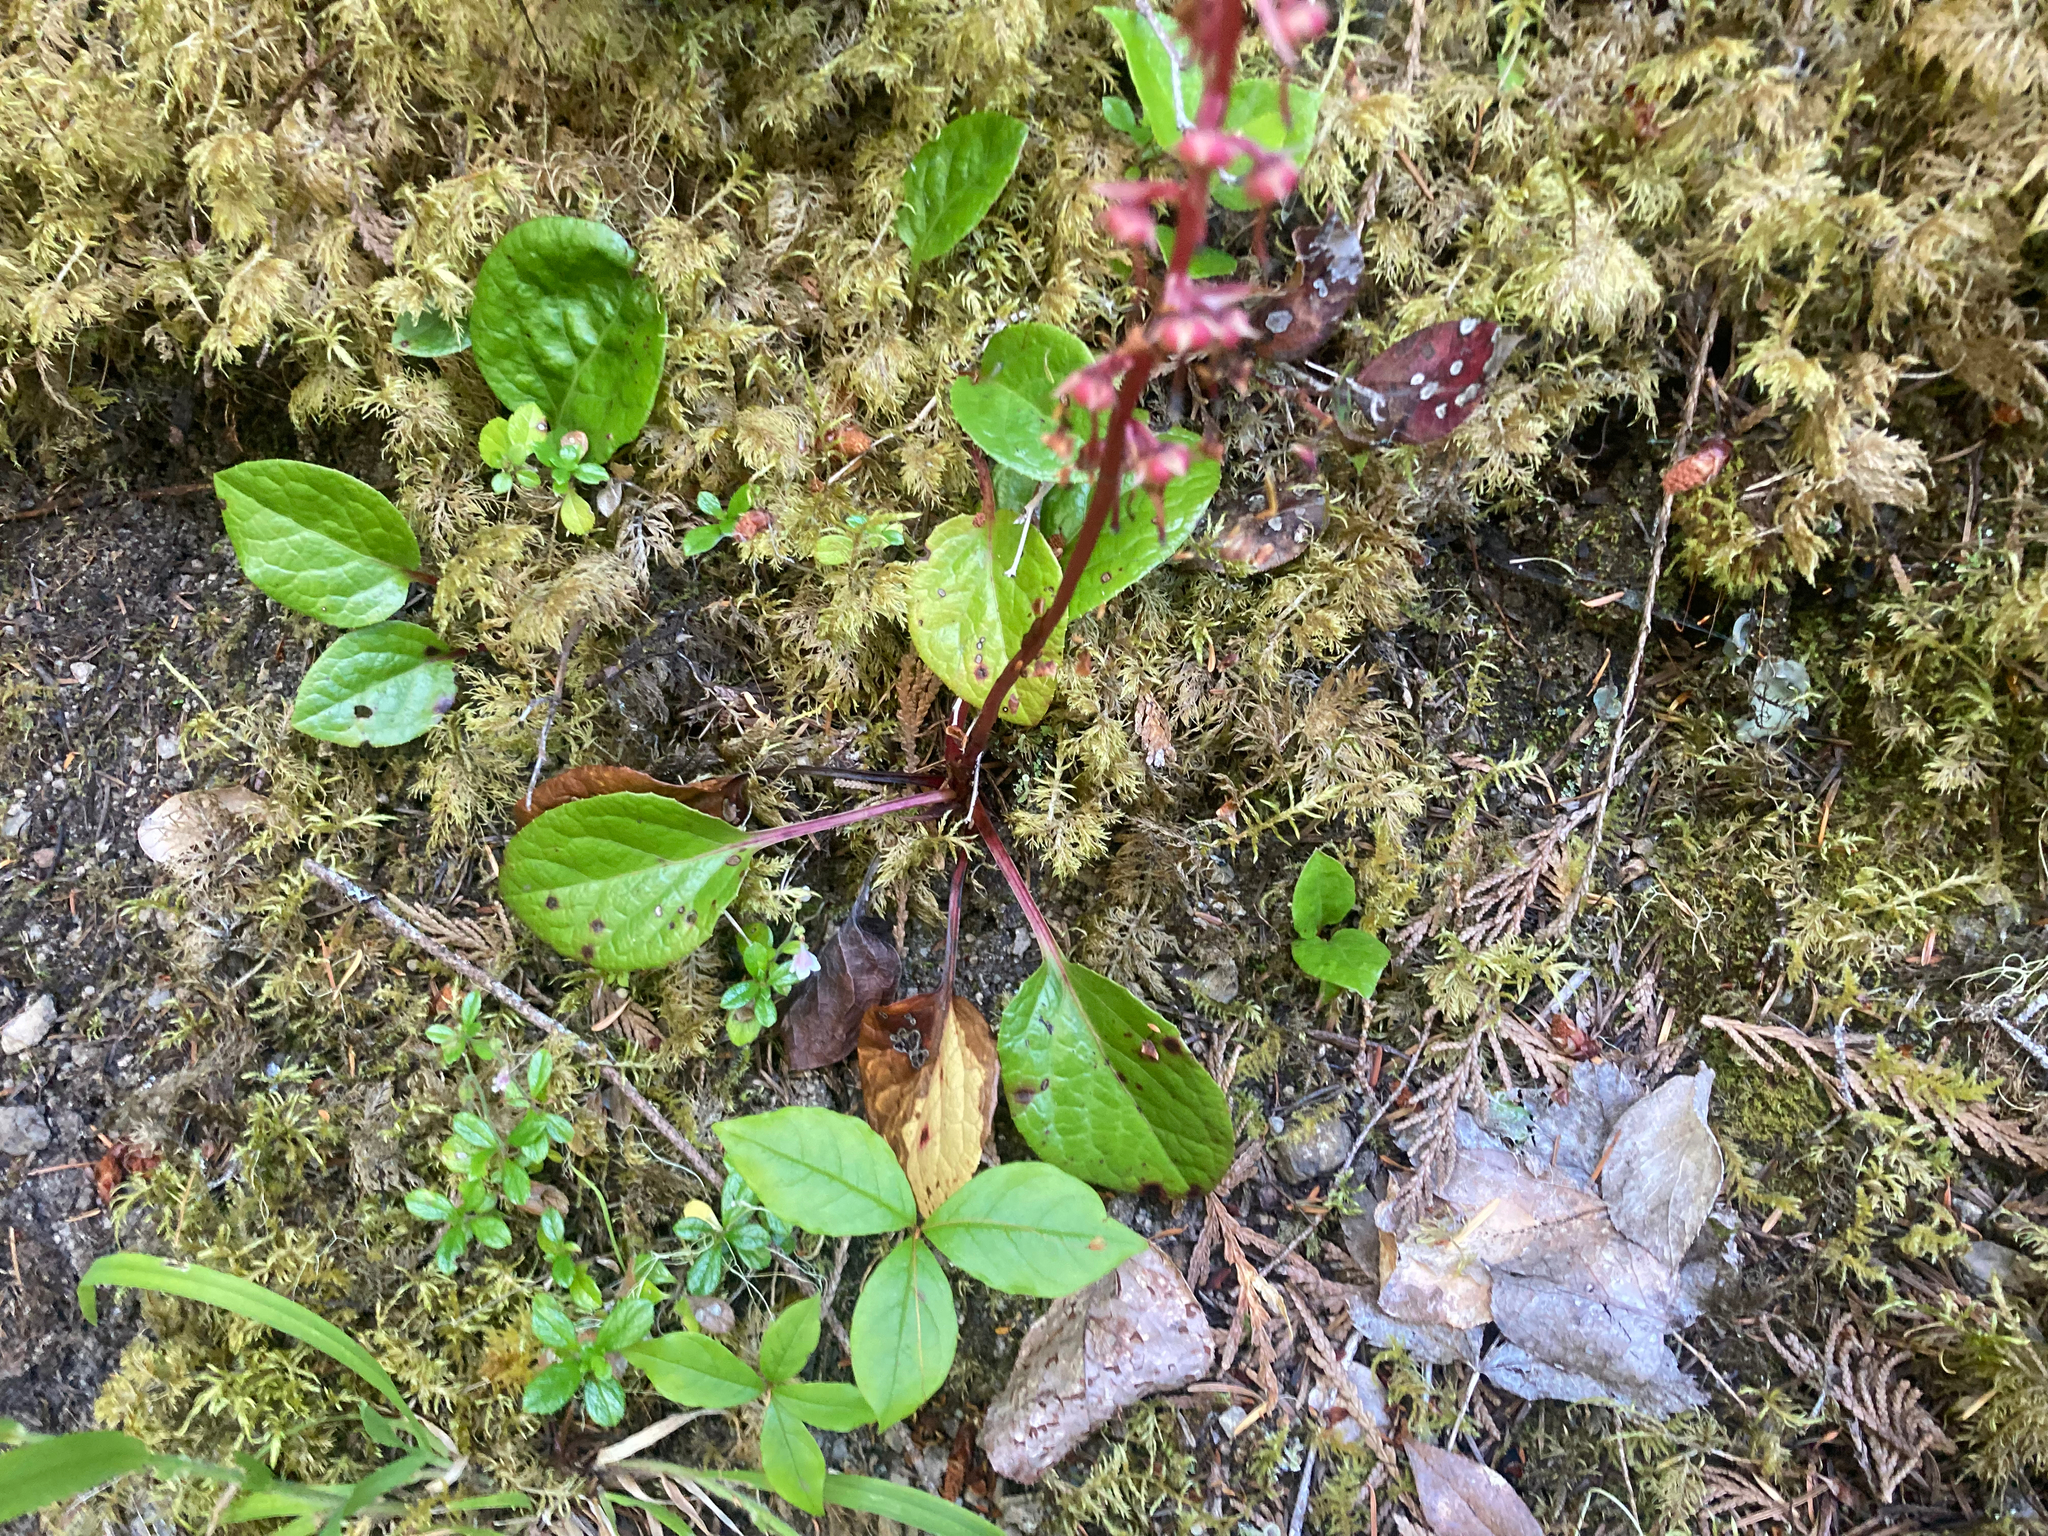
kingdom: Plantae
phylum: Tracheophyta
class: Magnoliopsida
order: Ericales
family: Ericaceae
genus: Pyrola
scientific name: Pyrola asarifolia
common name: Bog wintergreen
